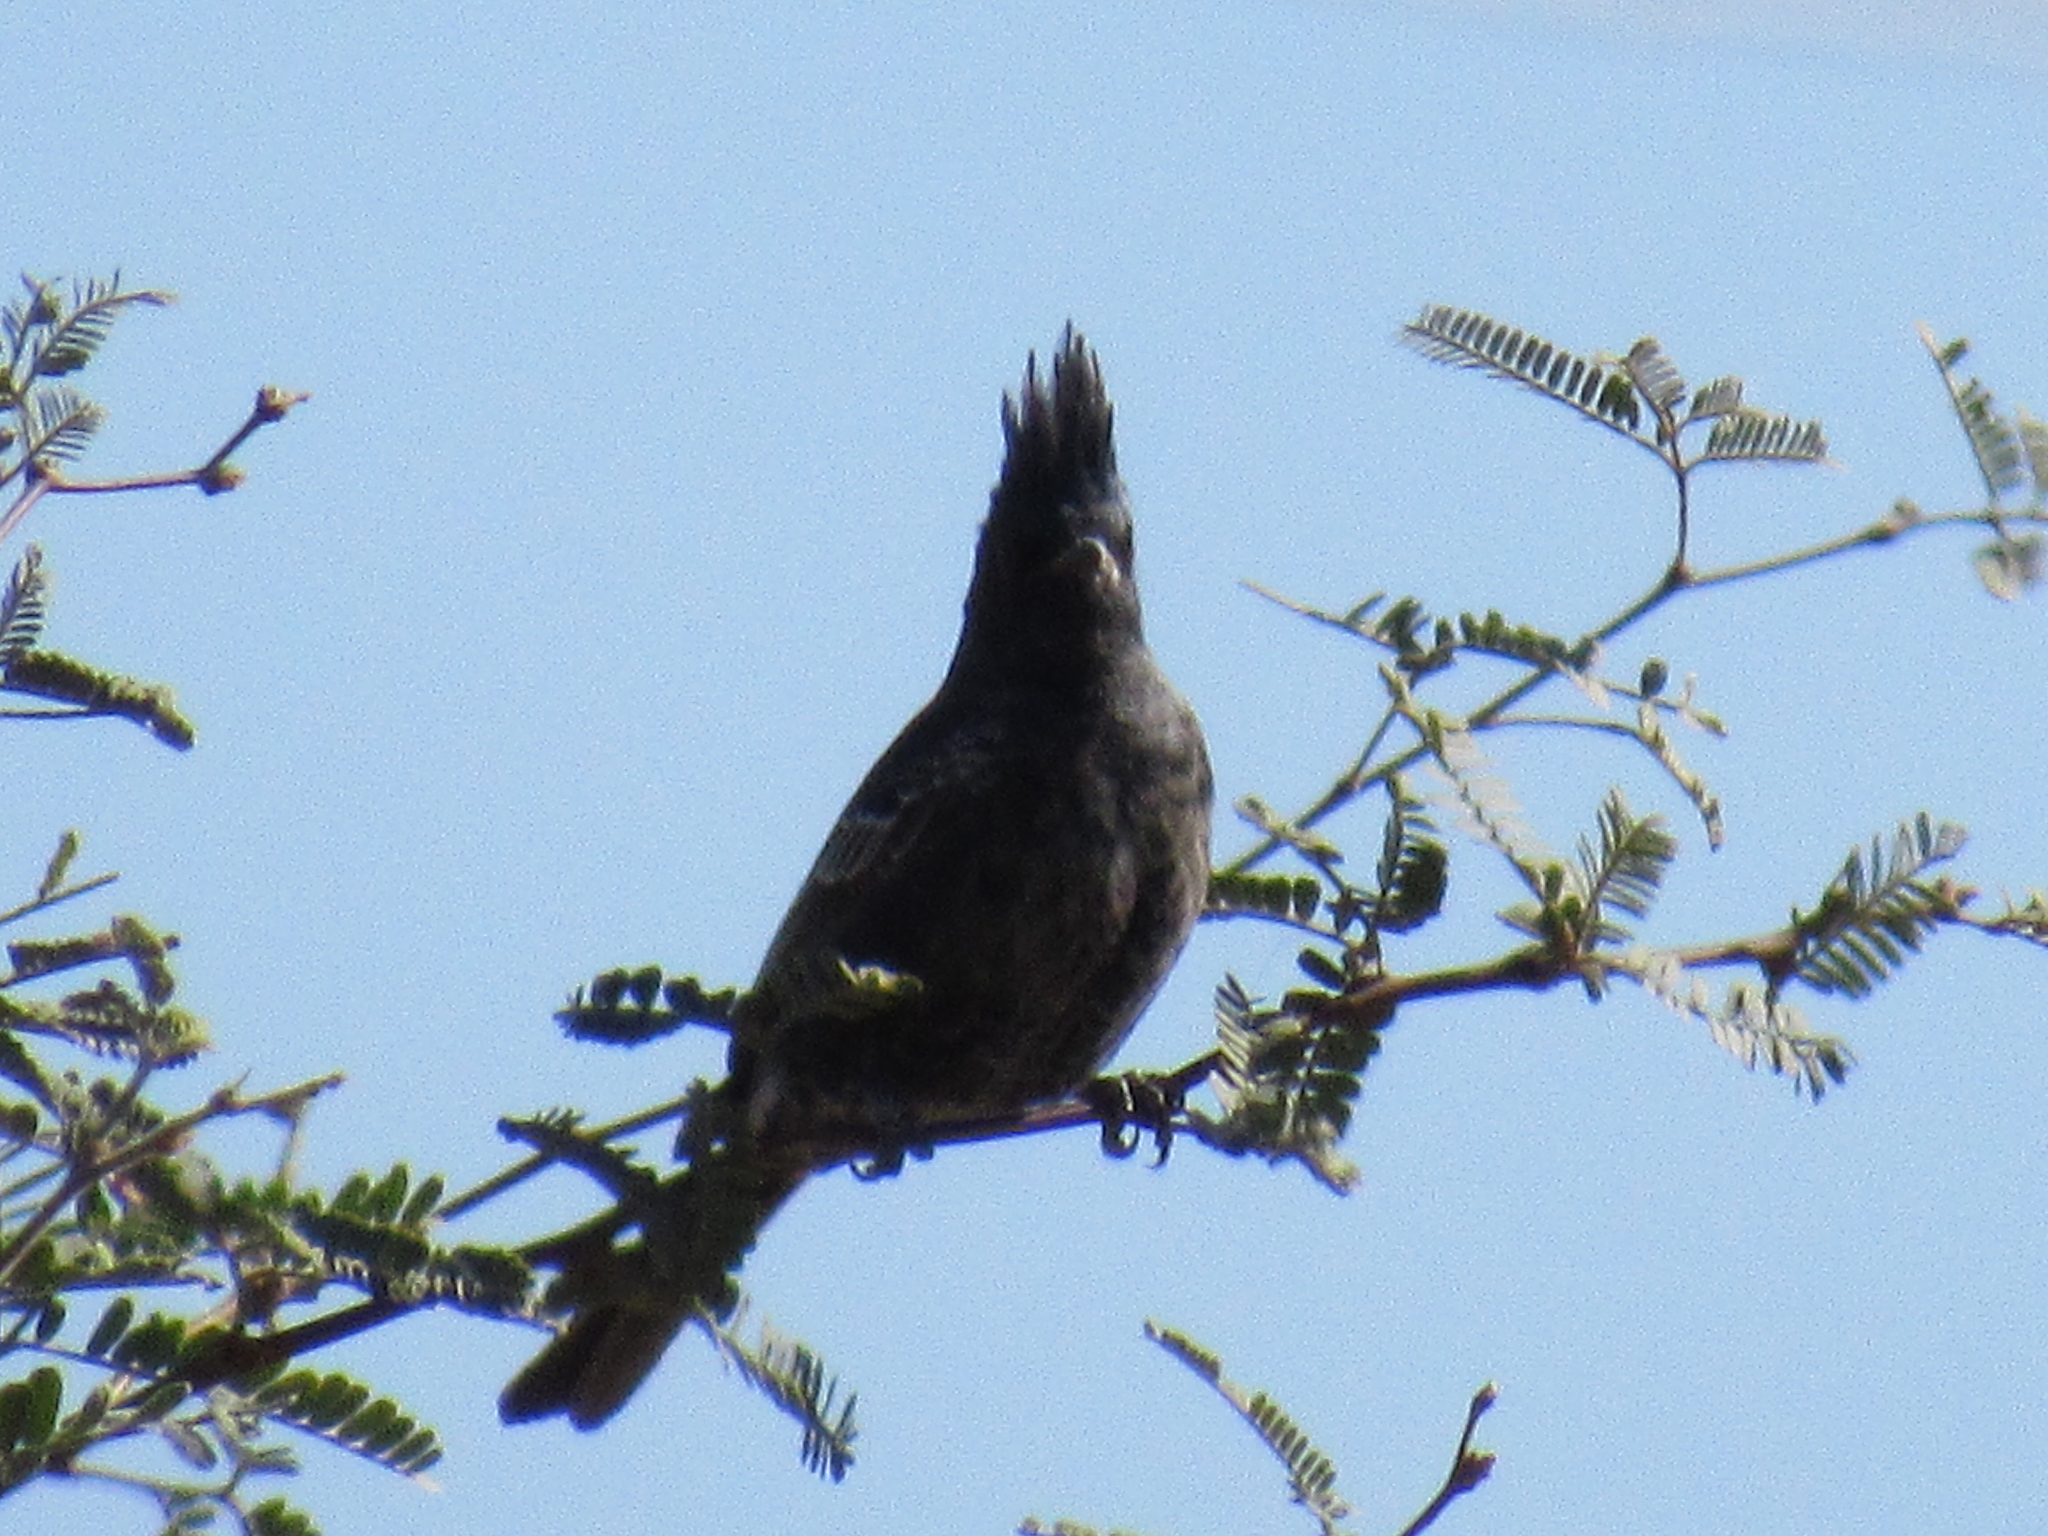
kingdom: Animalia
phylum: Chordata
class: Aves
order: Passeriformes
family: Ptilogonatidae
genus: Phainopepla
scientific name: Phainopepla nitens
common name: Phainopepla
